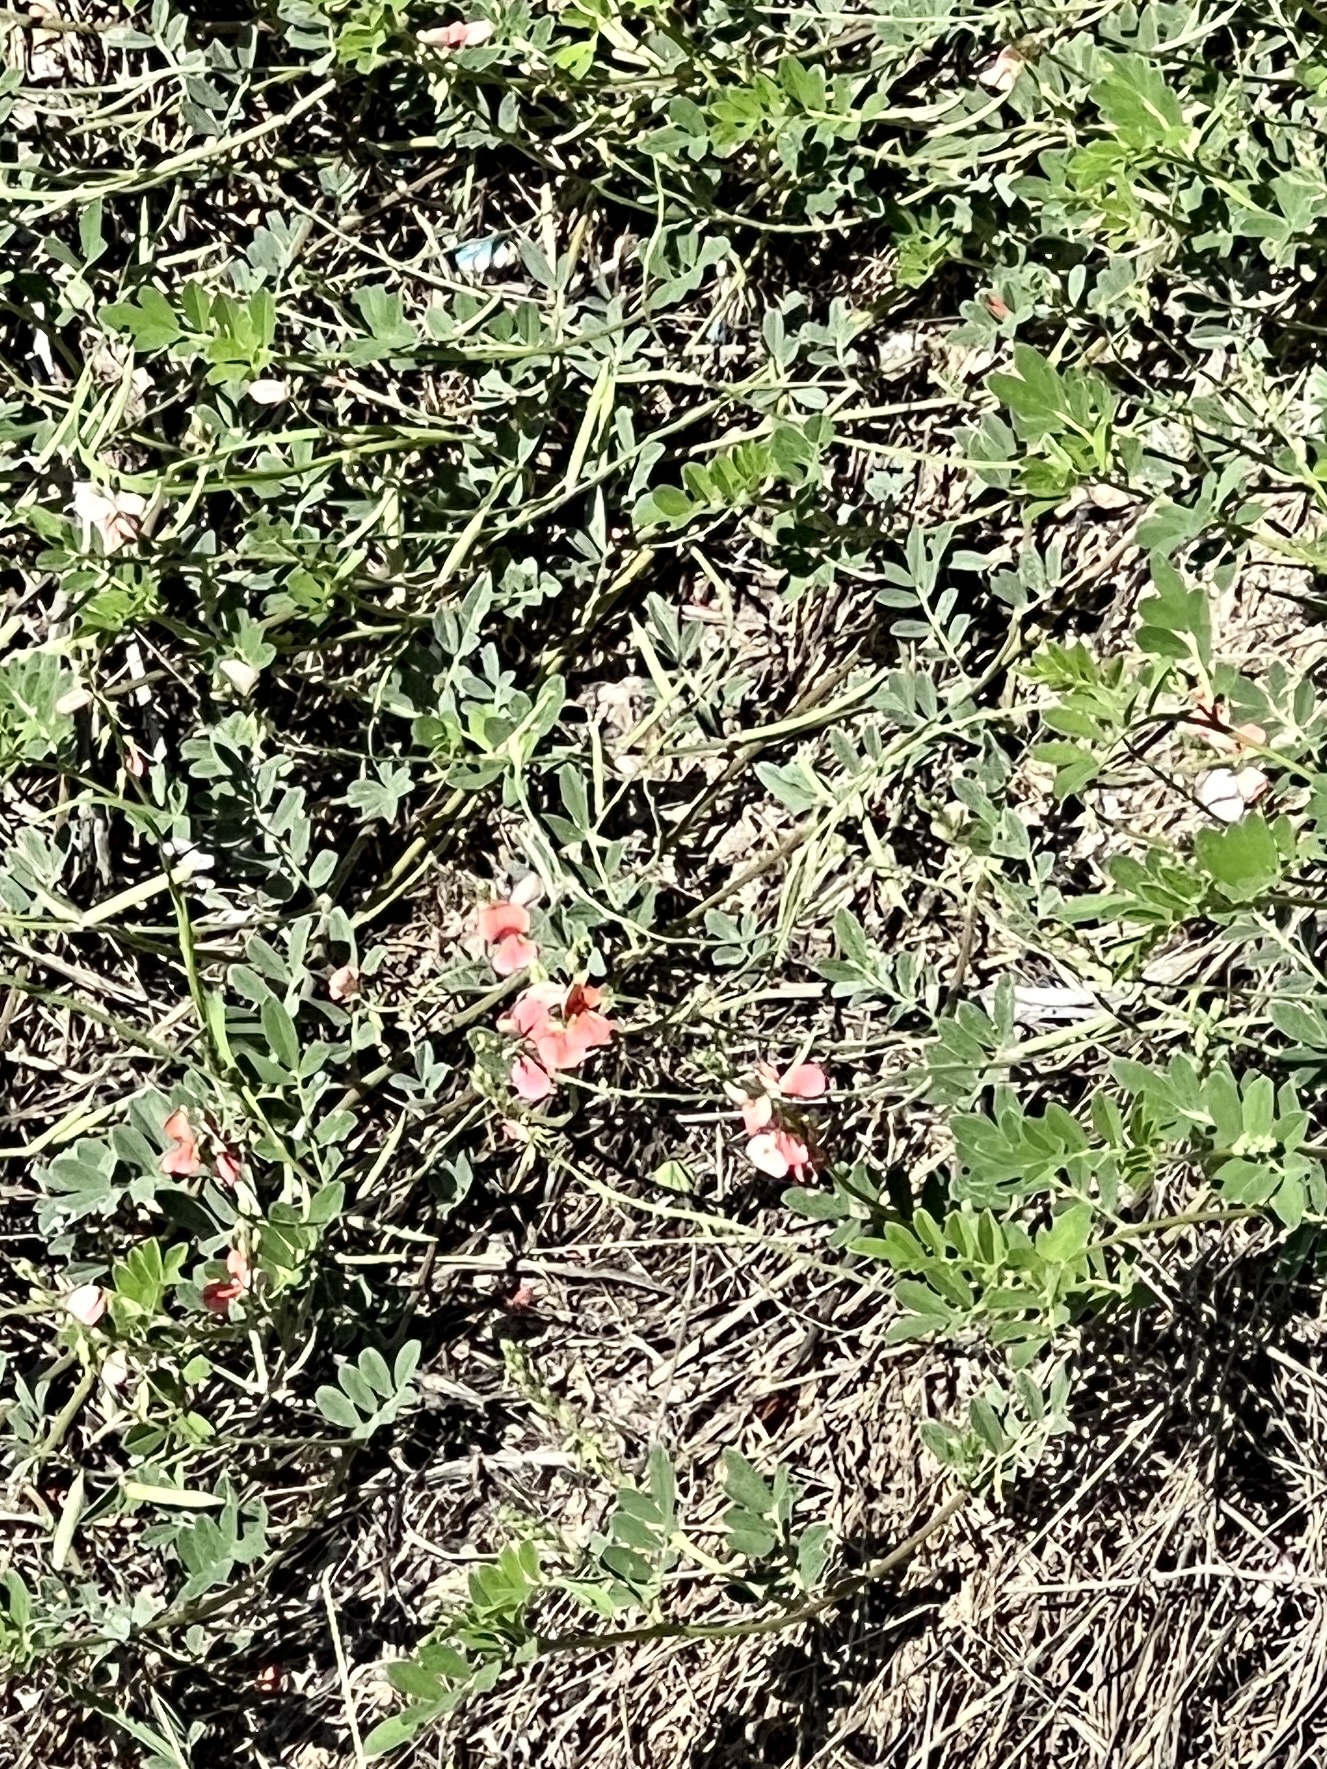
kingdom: Plantae
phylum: Tracheophyta
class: Magnoliopsida
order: Fabales
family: Fabaceae
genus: Indigofera
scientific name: Indigofera miniata
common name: Coast indigo
